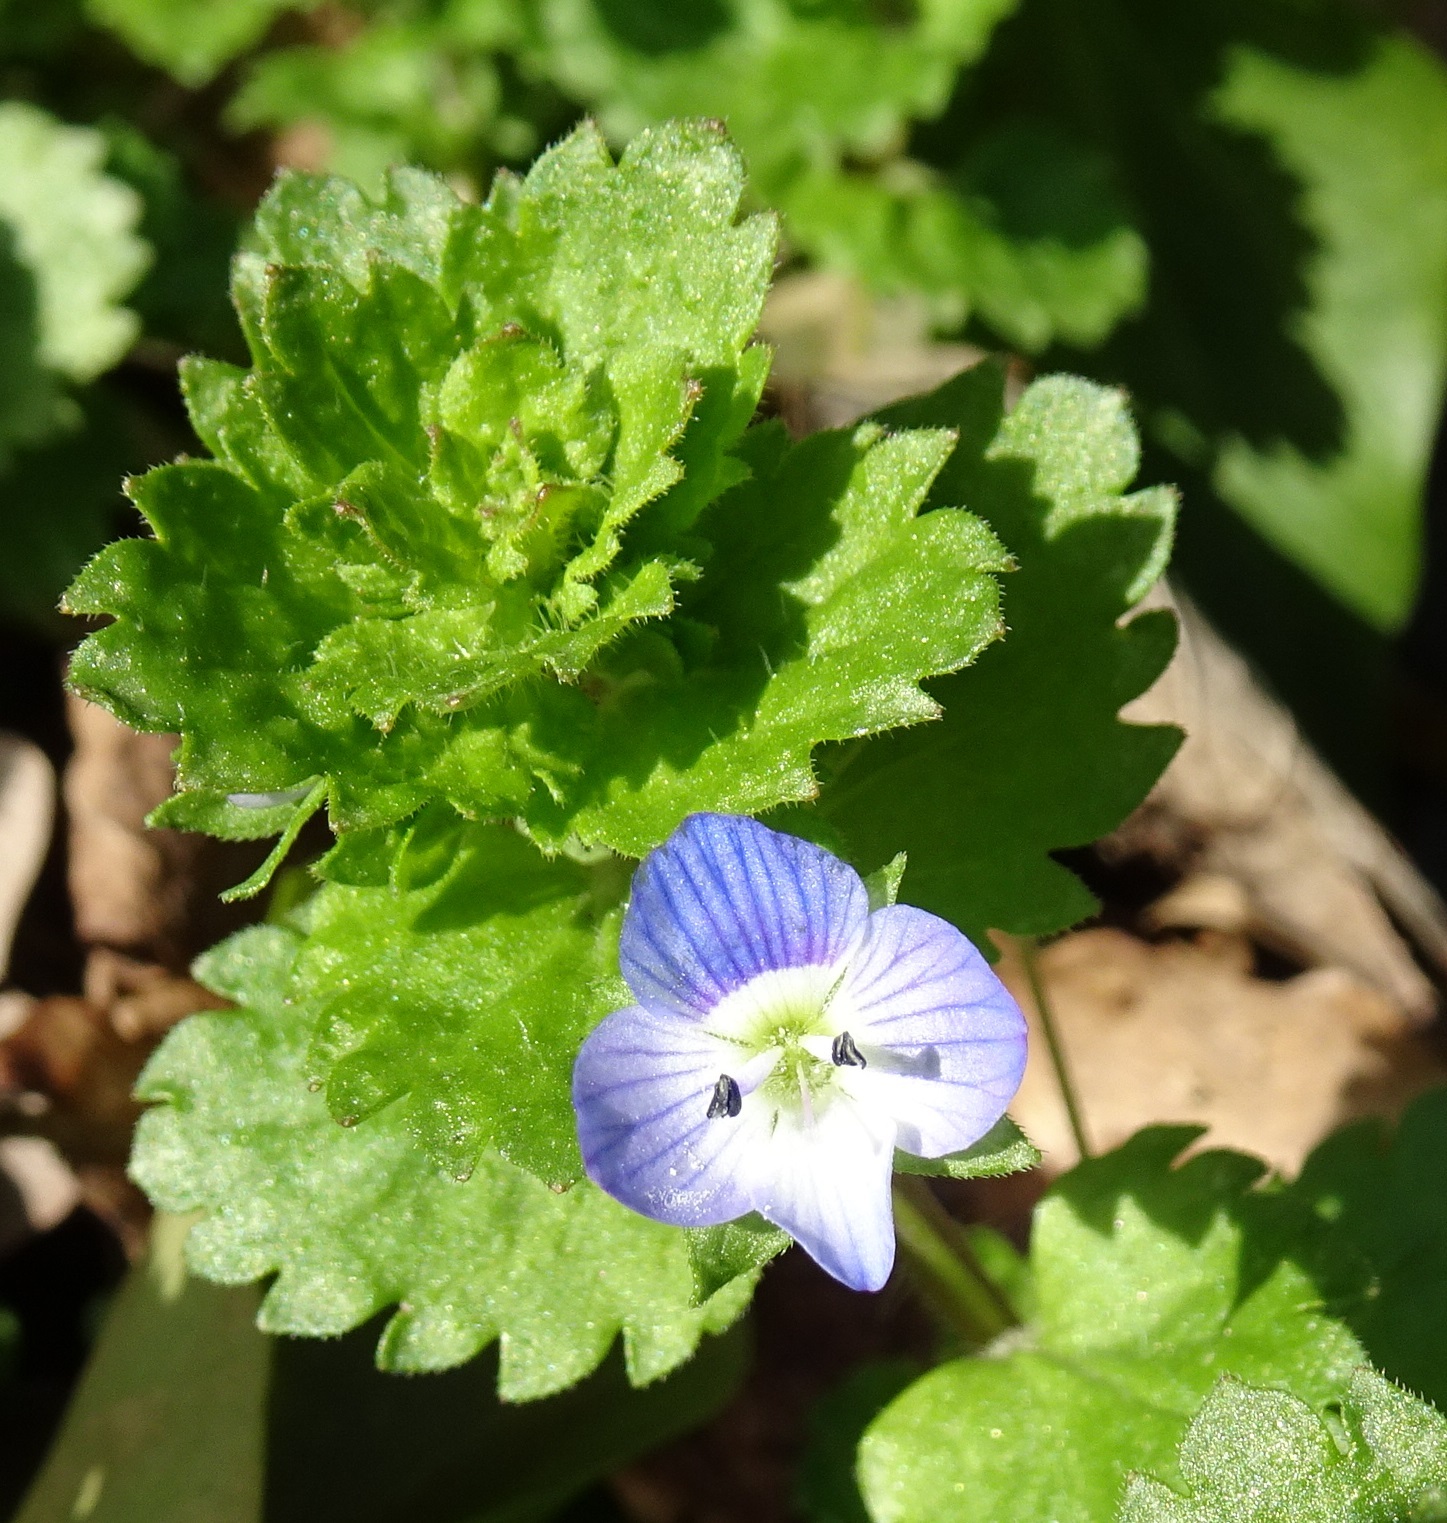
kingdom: Plantae
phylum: Tracheophyta
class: Magnoliopsida
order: Lamiales
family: Plantaginaceae
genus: Veronica
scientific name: Veronica persica
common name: Common field-speedwell
